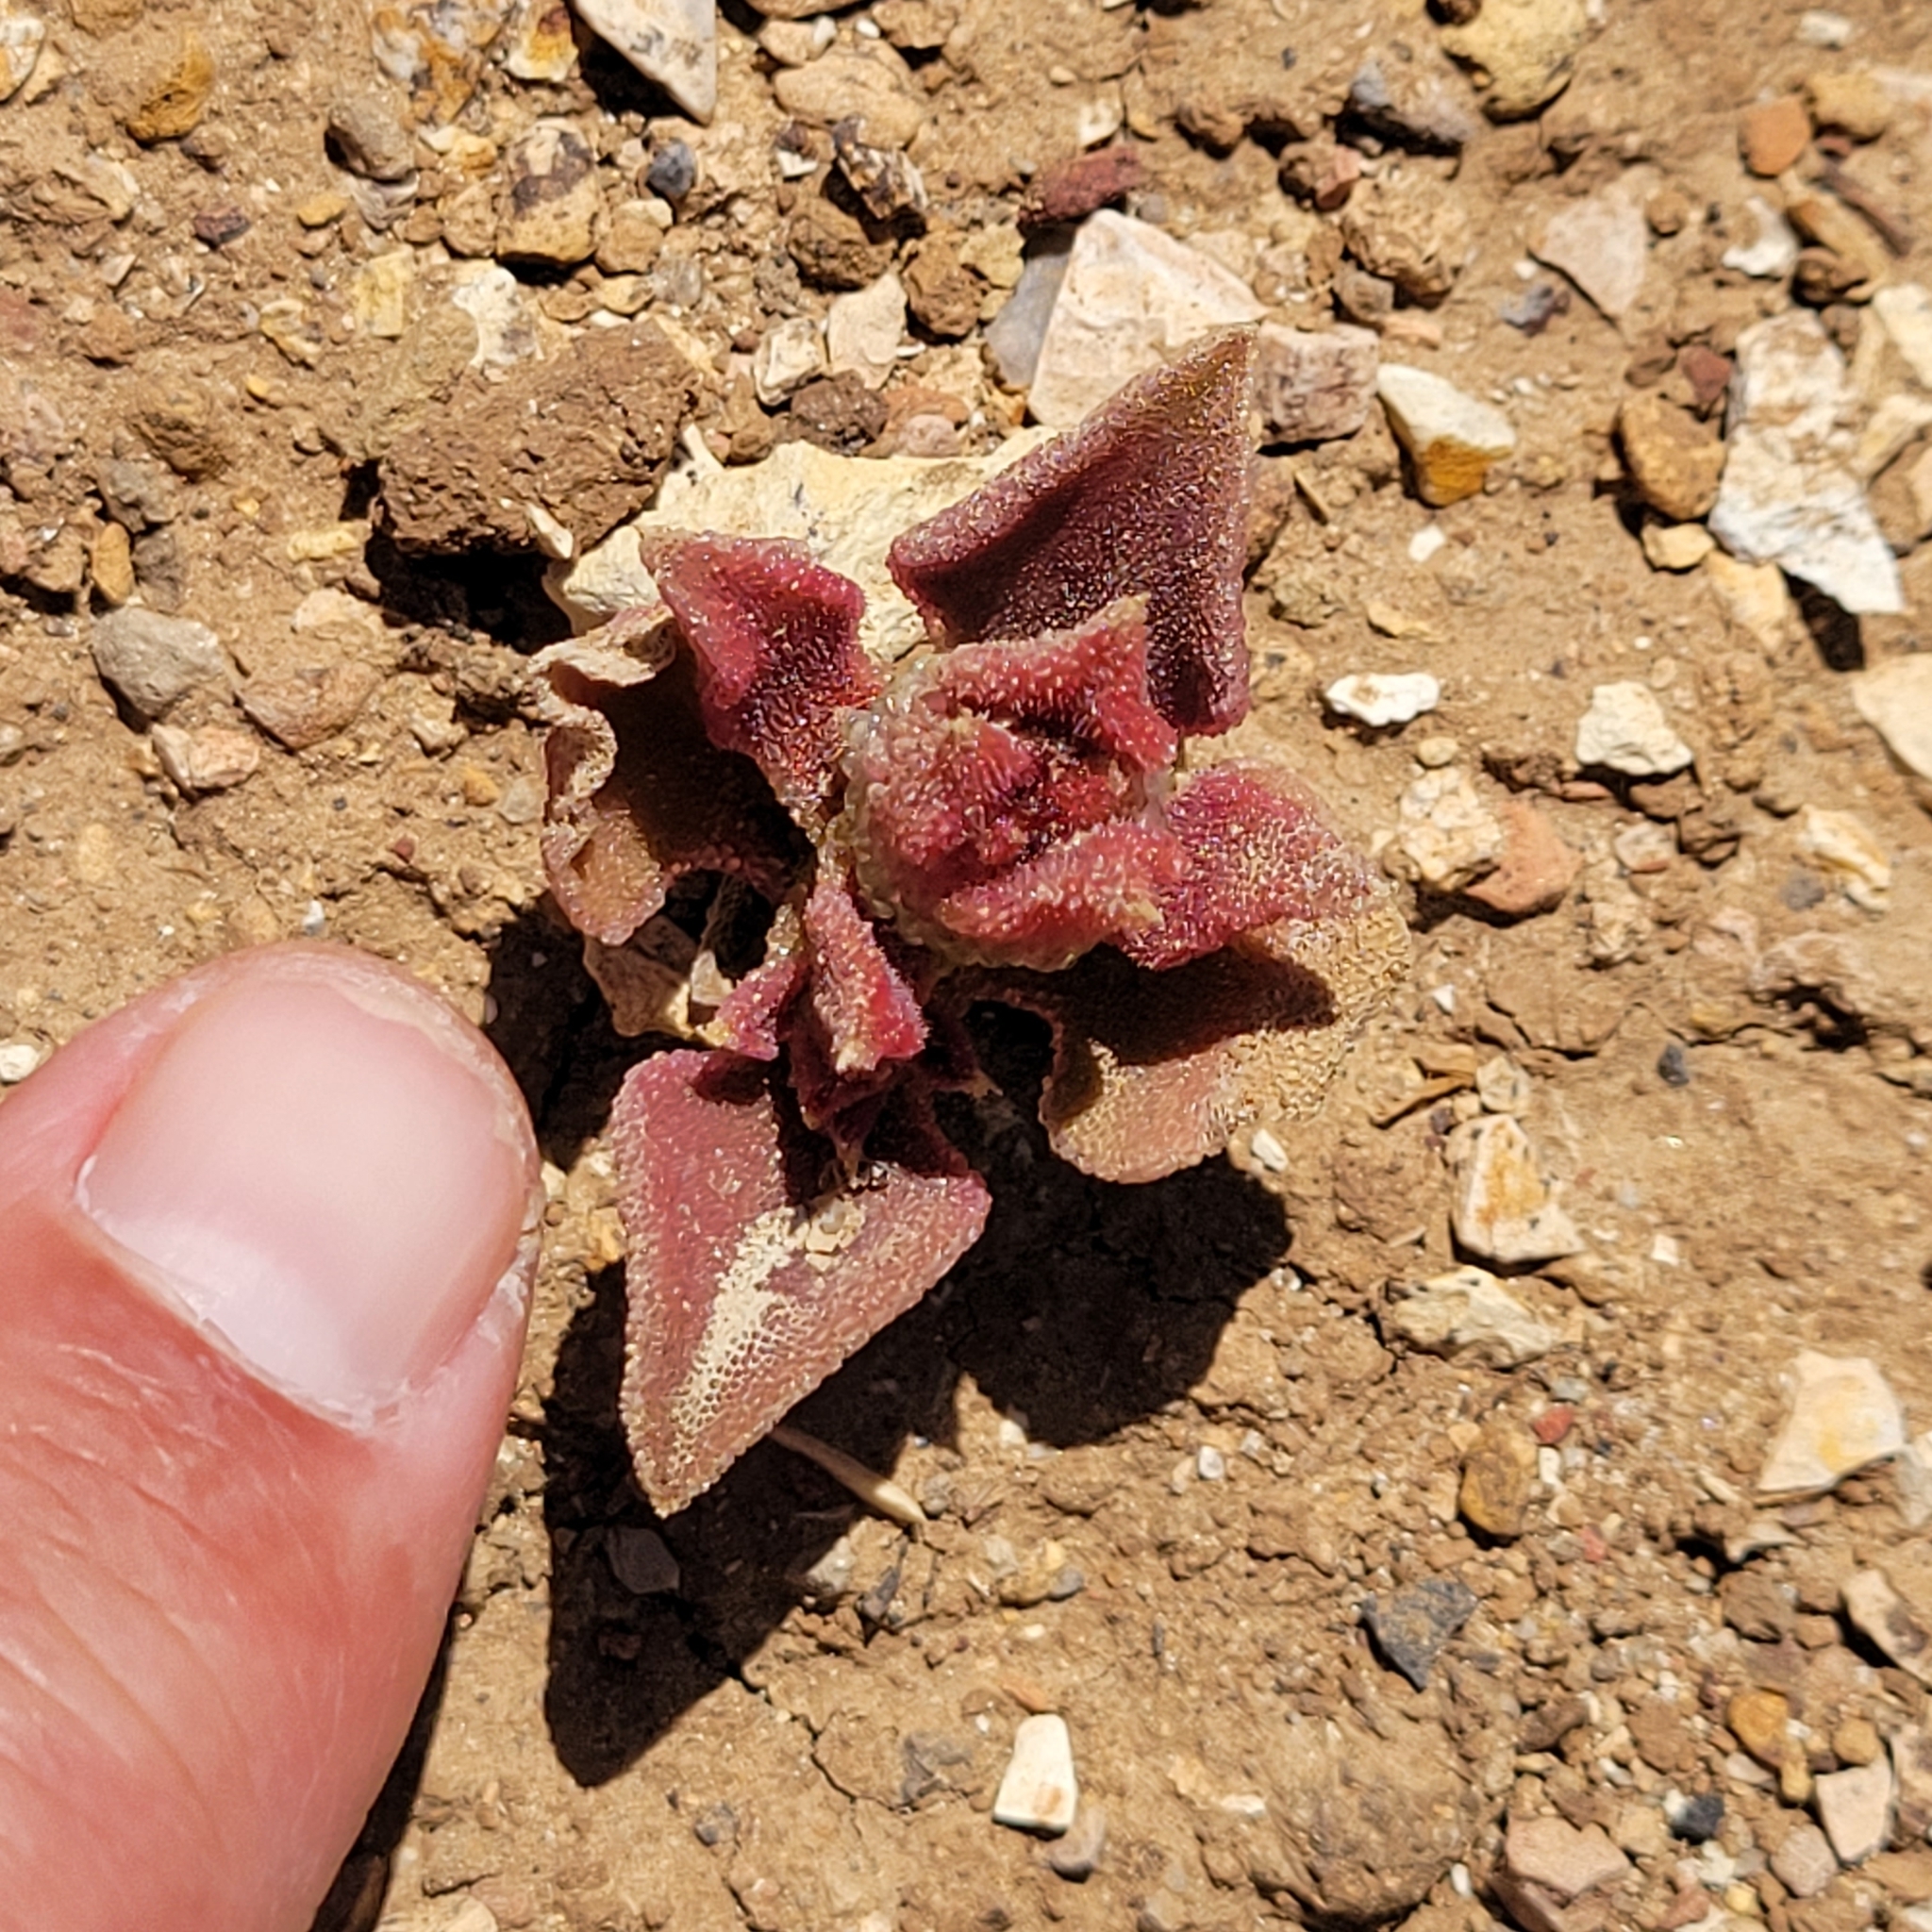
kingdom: Plantae
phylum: Tracheophyta
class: Magnoliopsida
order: Caryophyllales
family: Aizoaceae
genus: Mesembryanthemum
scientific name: Mesembryanthemum crystallinum
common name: Common iceplant
